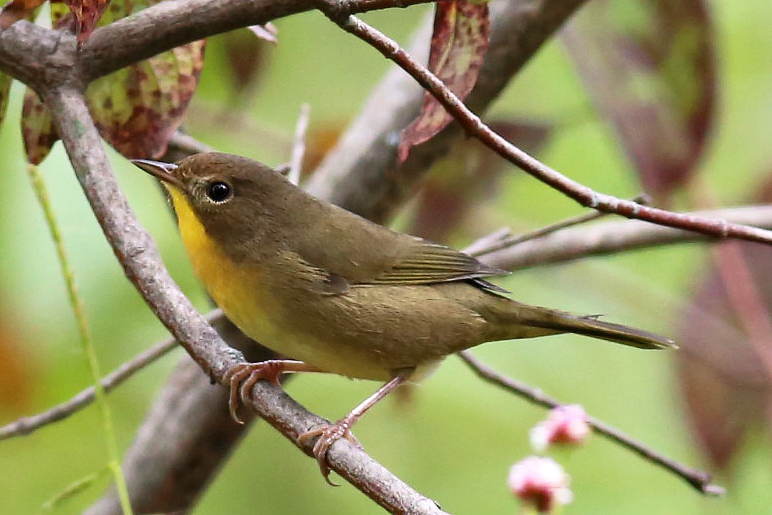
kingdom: Animalia
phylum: Chordata
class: Aves
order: Passeriformes
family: Parulidae
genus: Geothlypis
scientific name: Geothlypis trichas
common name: Common yellowthroat
